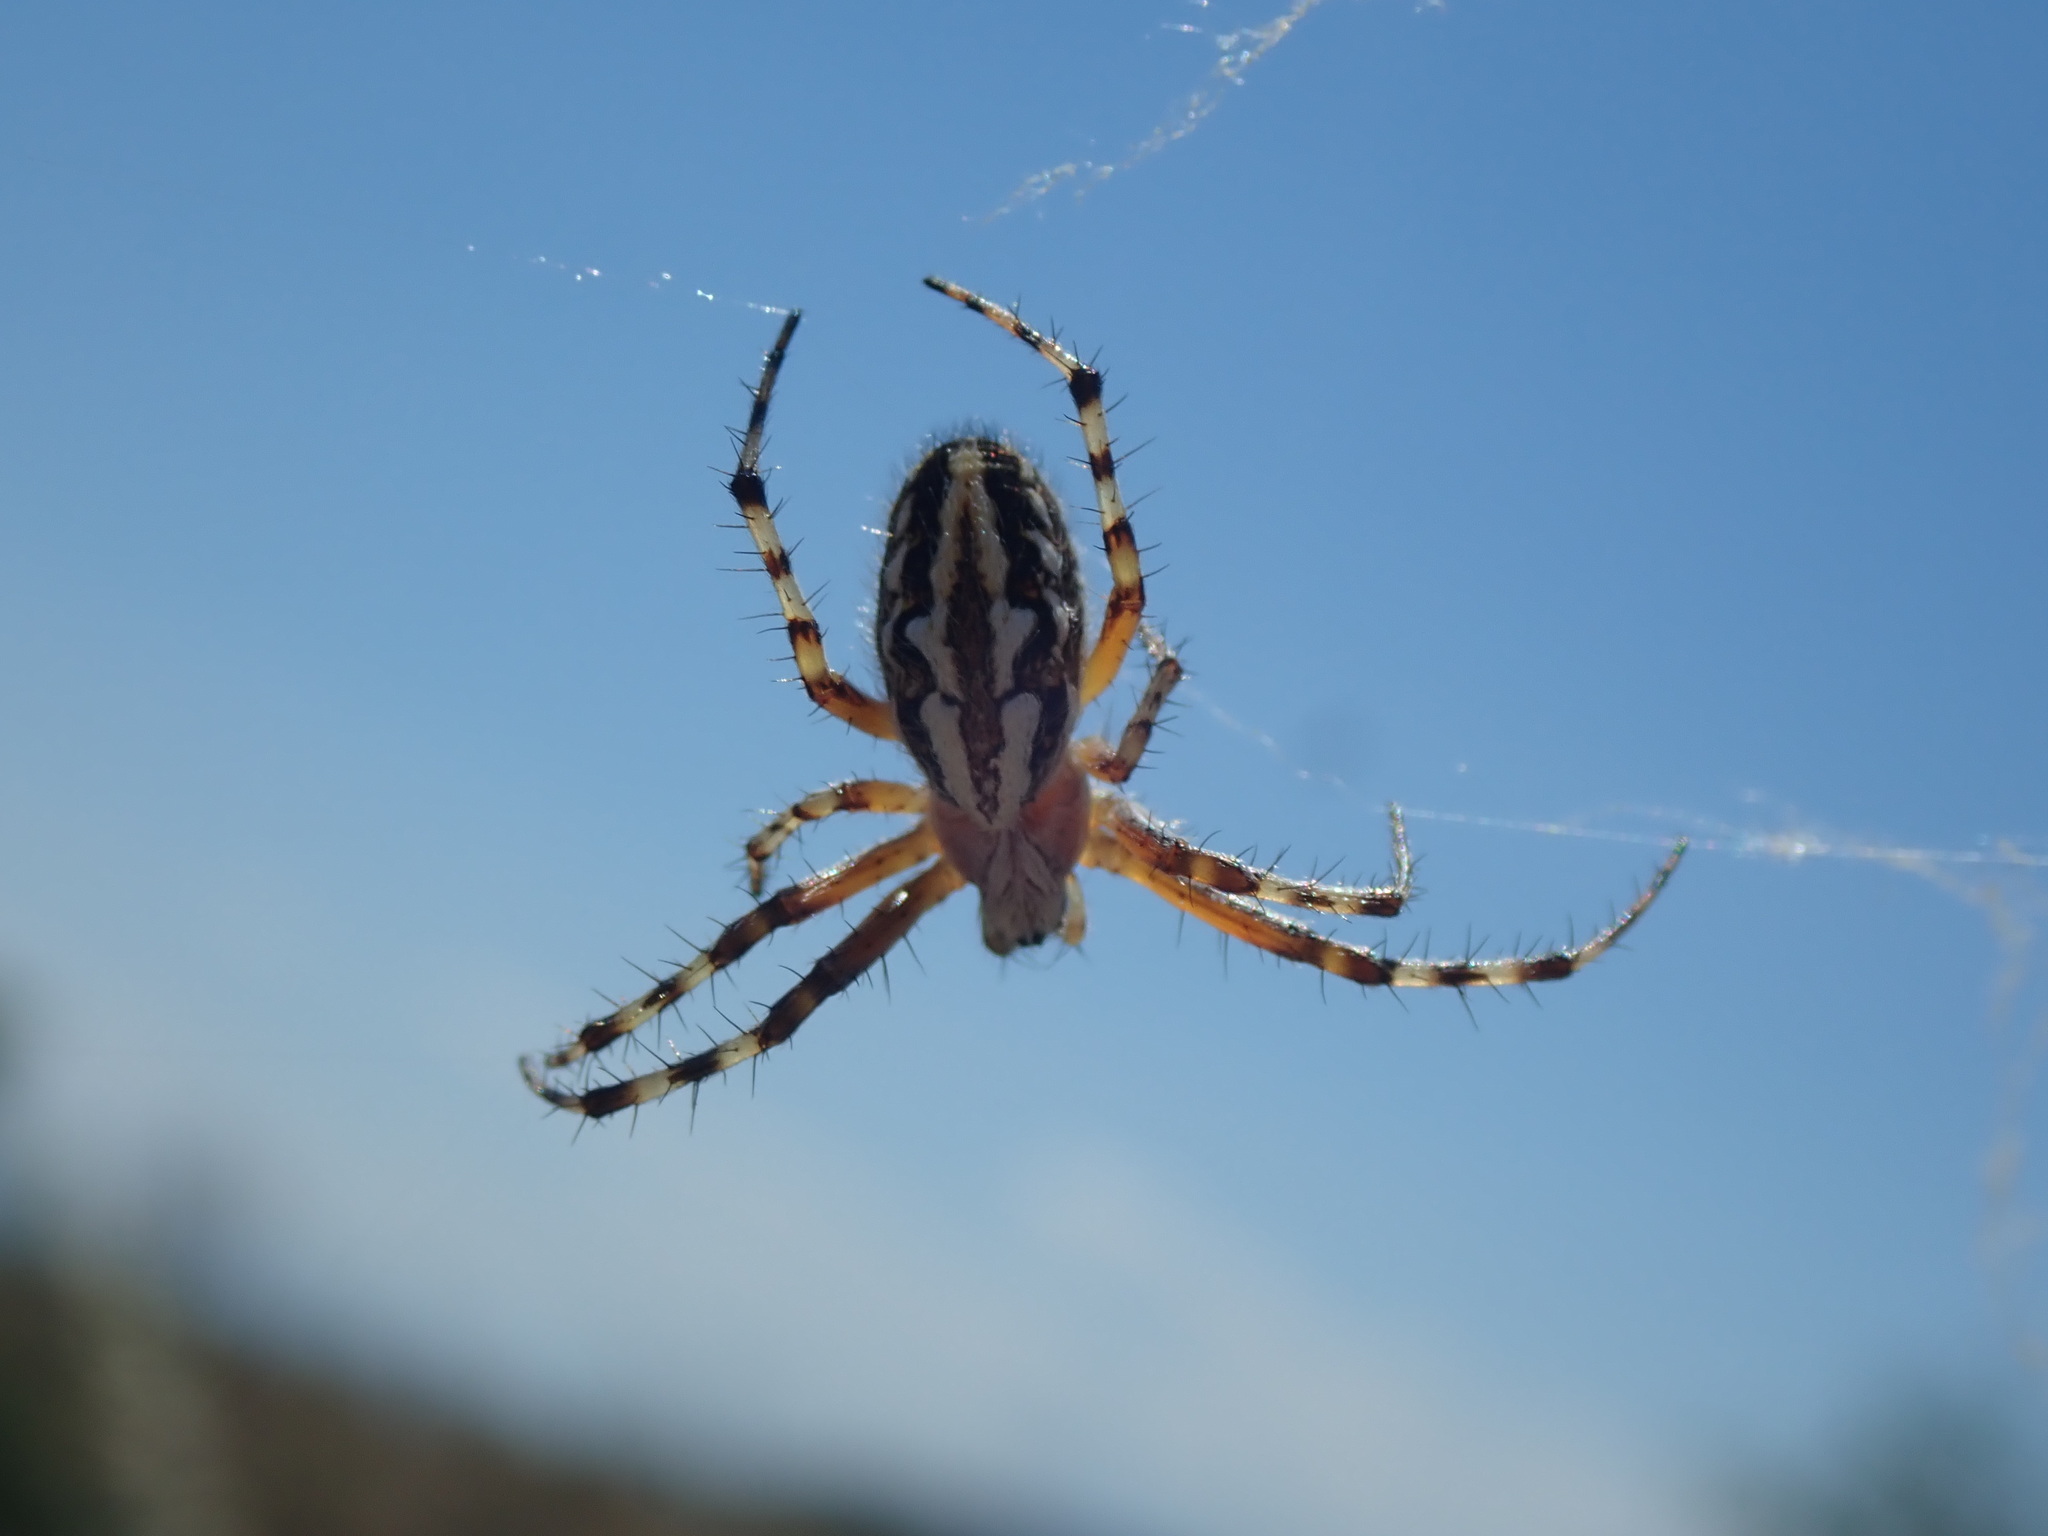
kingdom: Animalia
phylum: Arthropoda
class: Arachnida
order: Araneae
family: Araneidae
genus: Aculepeira
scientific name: Aculepeira ceropegia
